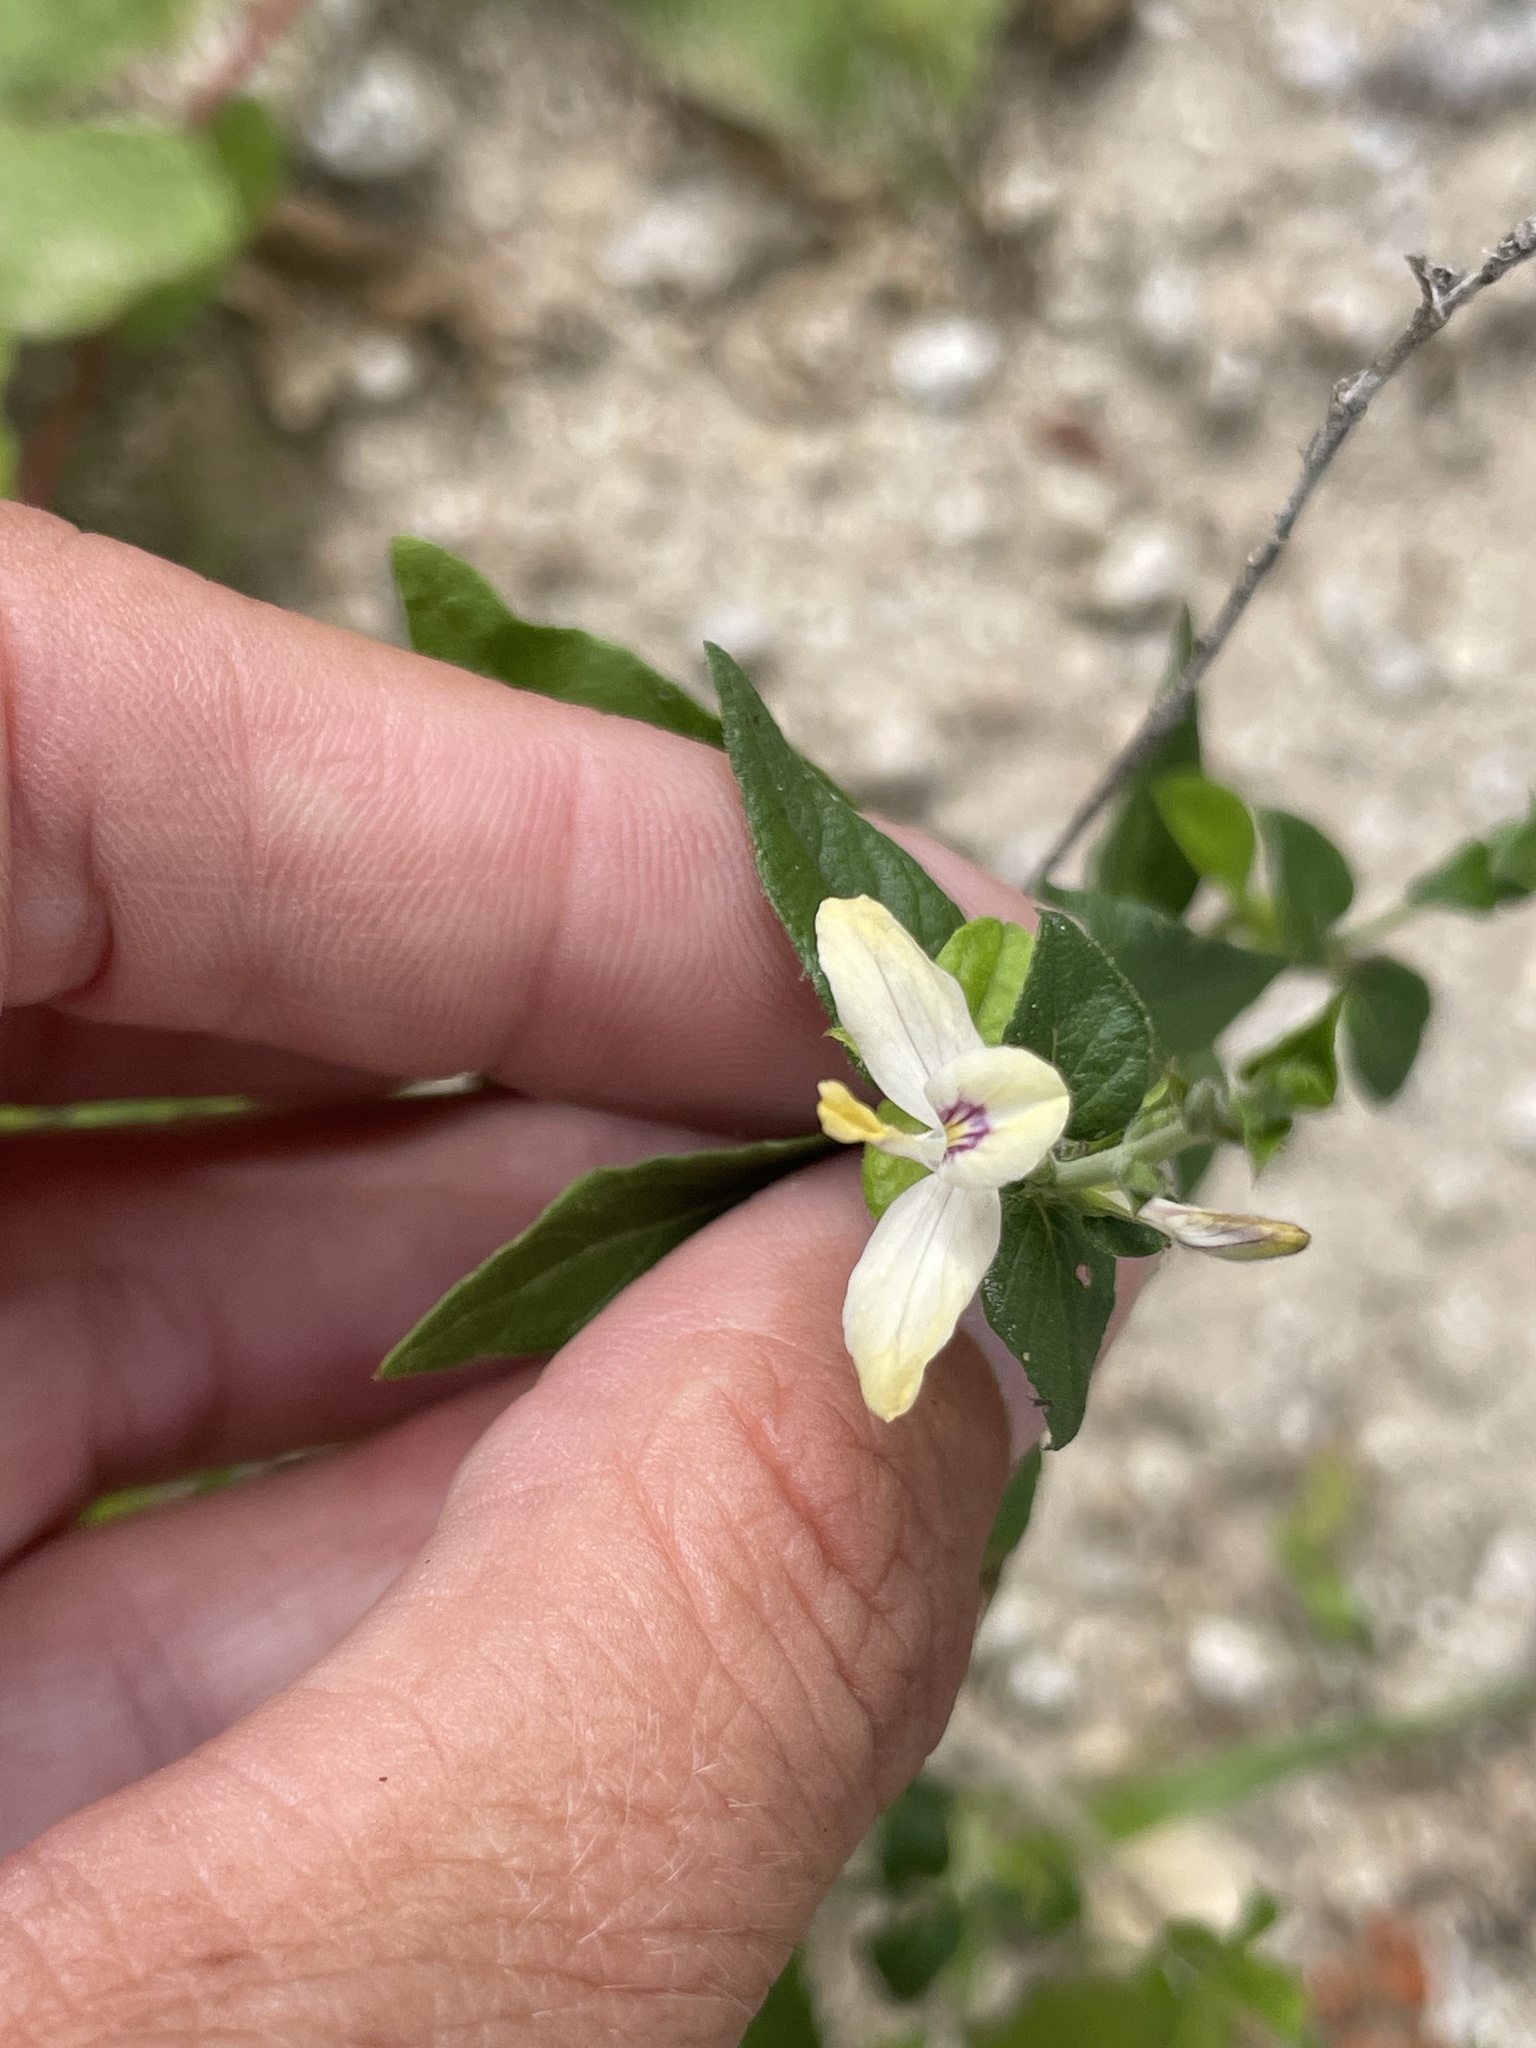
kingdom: Plantae
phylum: Tracheophyta
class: Magnoliopsida
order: Lamiales
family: Acanthaceae
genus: Carlowrightia
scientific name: Carlowrightia arizonica
